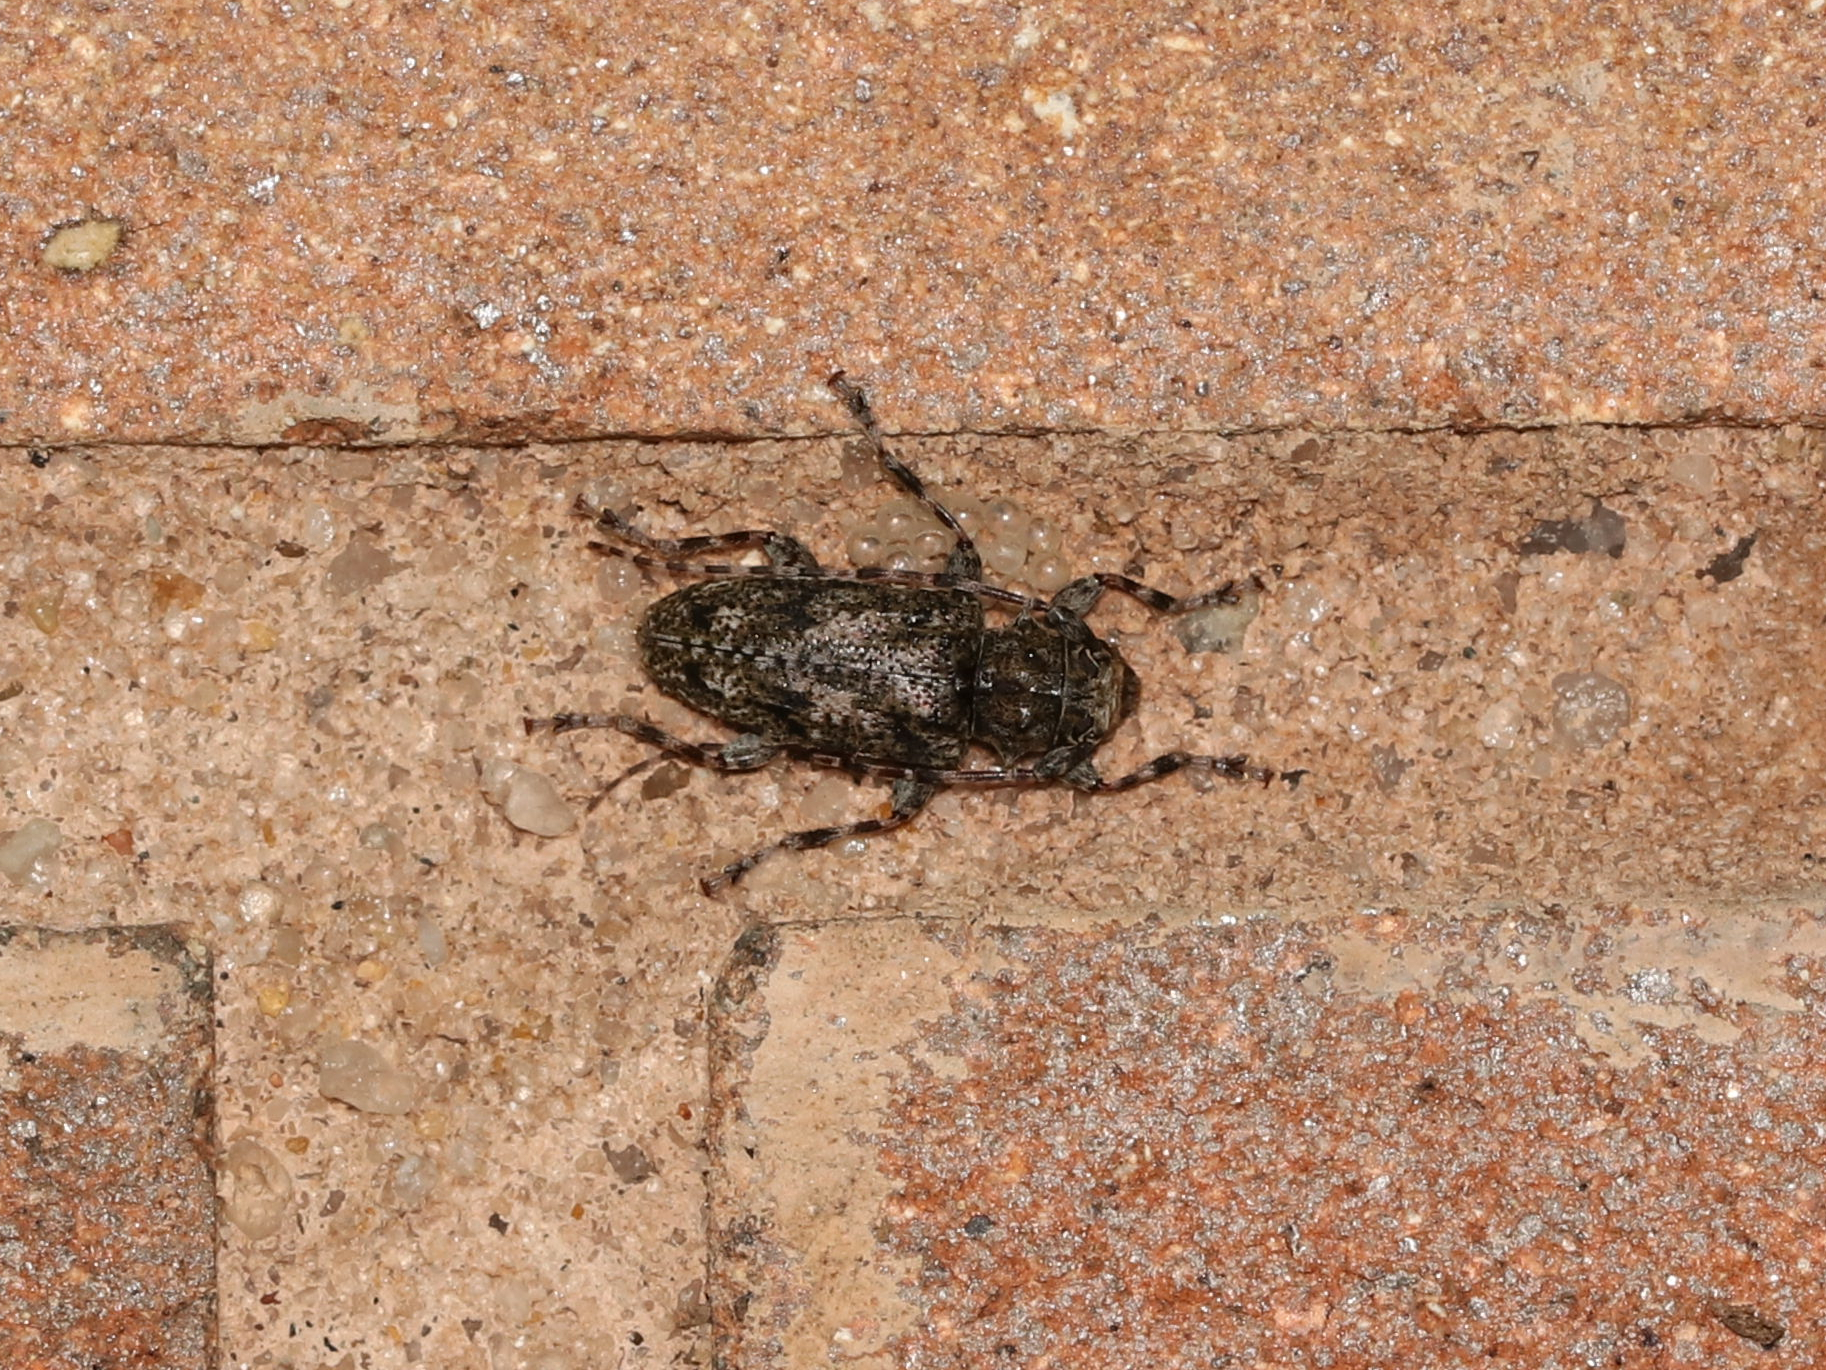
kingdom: Animalia
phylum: Arthropoda
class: Insecta
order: Coleoptera
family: Cerambycidae
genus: Aegomorphus
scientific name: Aegomorphus modestus
